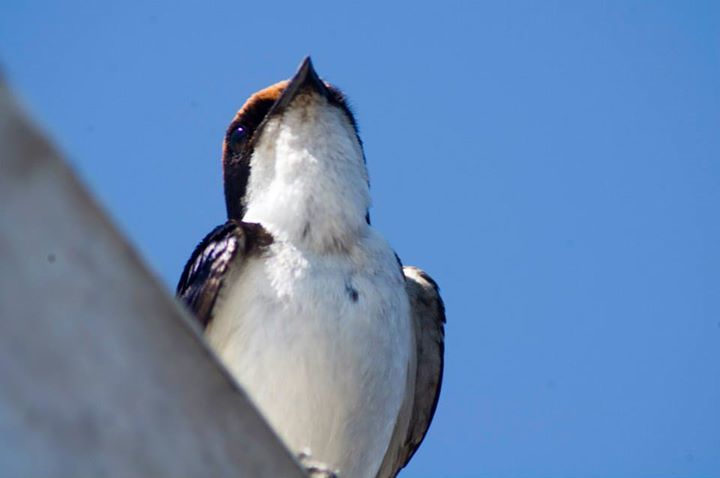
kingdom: Animalia
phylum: Chordata
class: Aves
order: Passeriformes
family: Hirundinidae
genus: Hirundo
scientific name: Hirundo smithii
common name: Wire-tailed swallow
